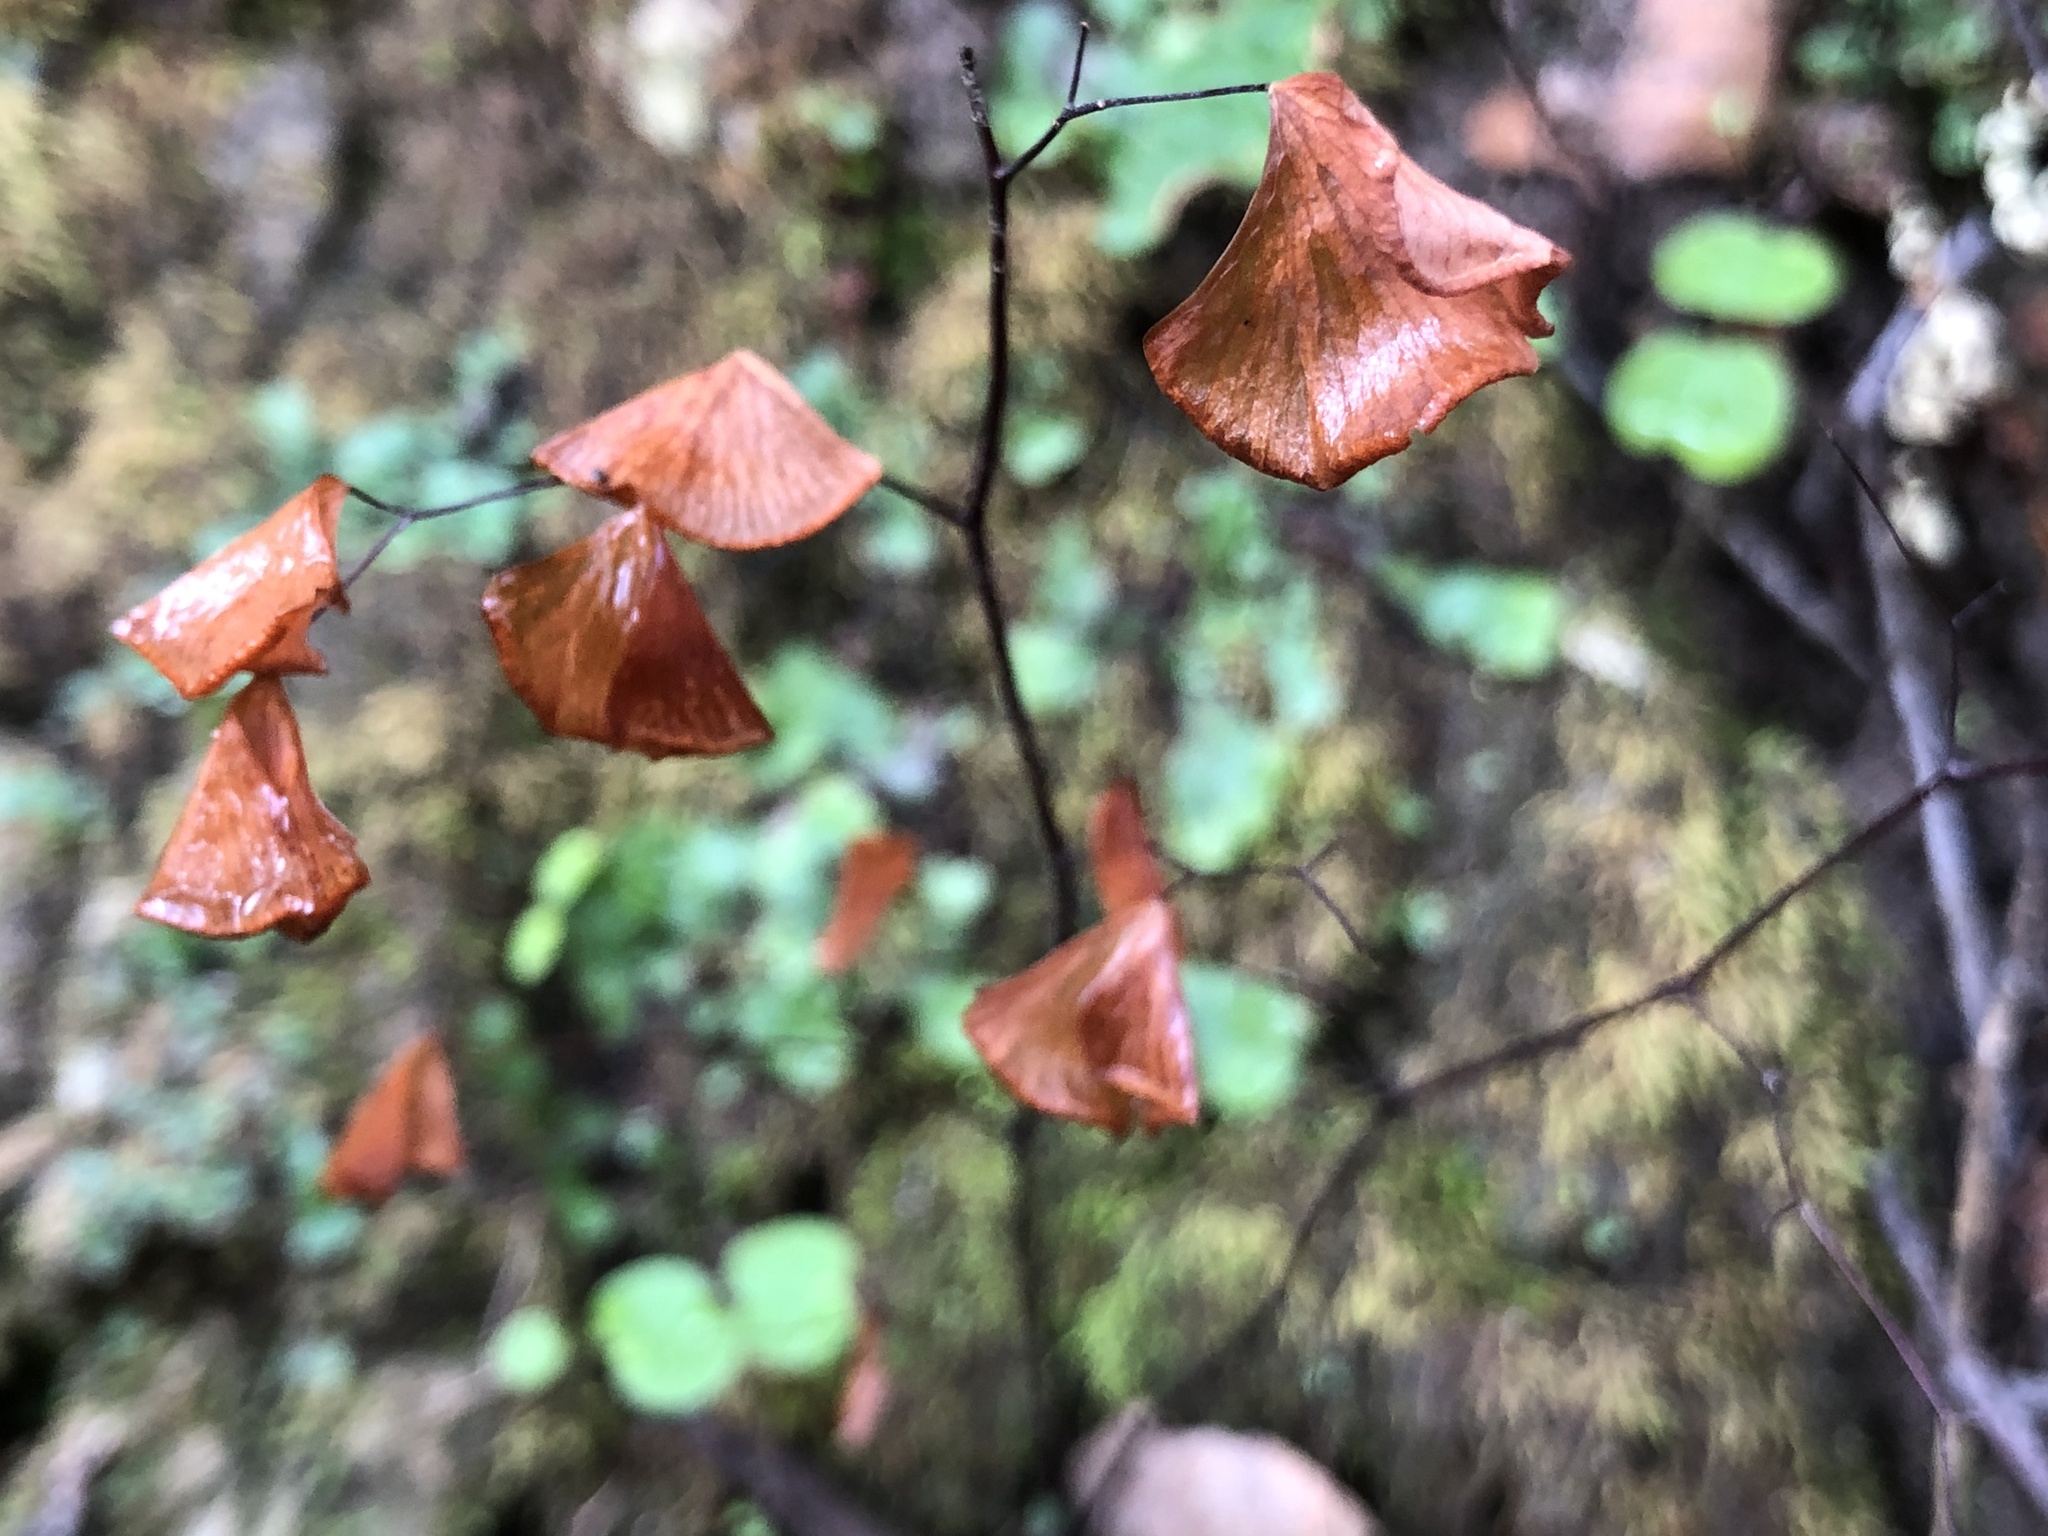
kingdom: Plantae
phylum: Tracheophyta
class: Polypodiopsida
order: Polypodiales
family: Pteridaceae
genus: Adiantum
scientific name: Adiantum jordanii
